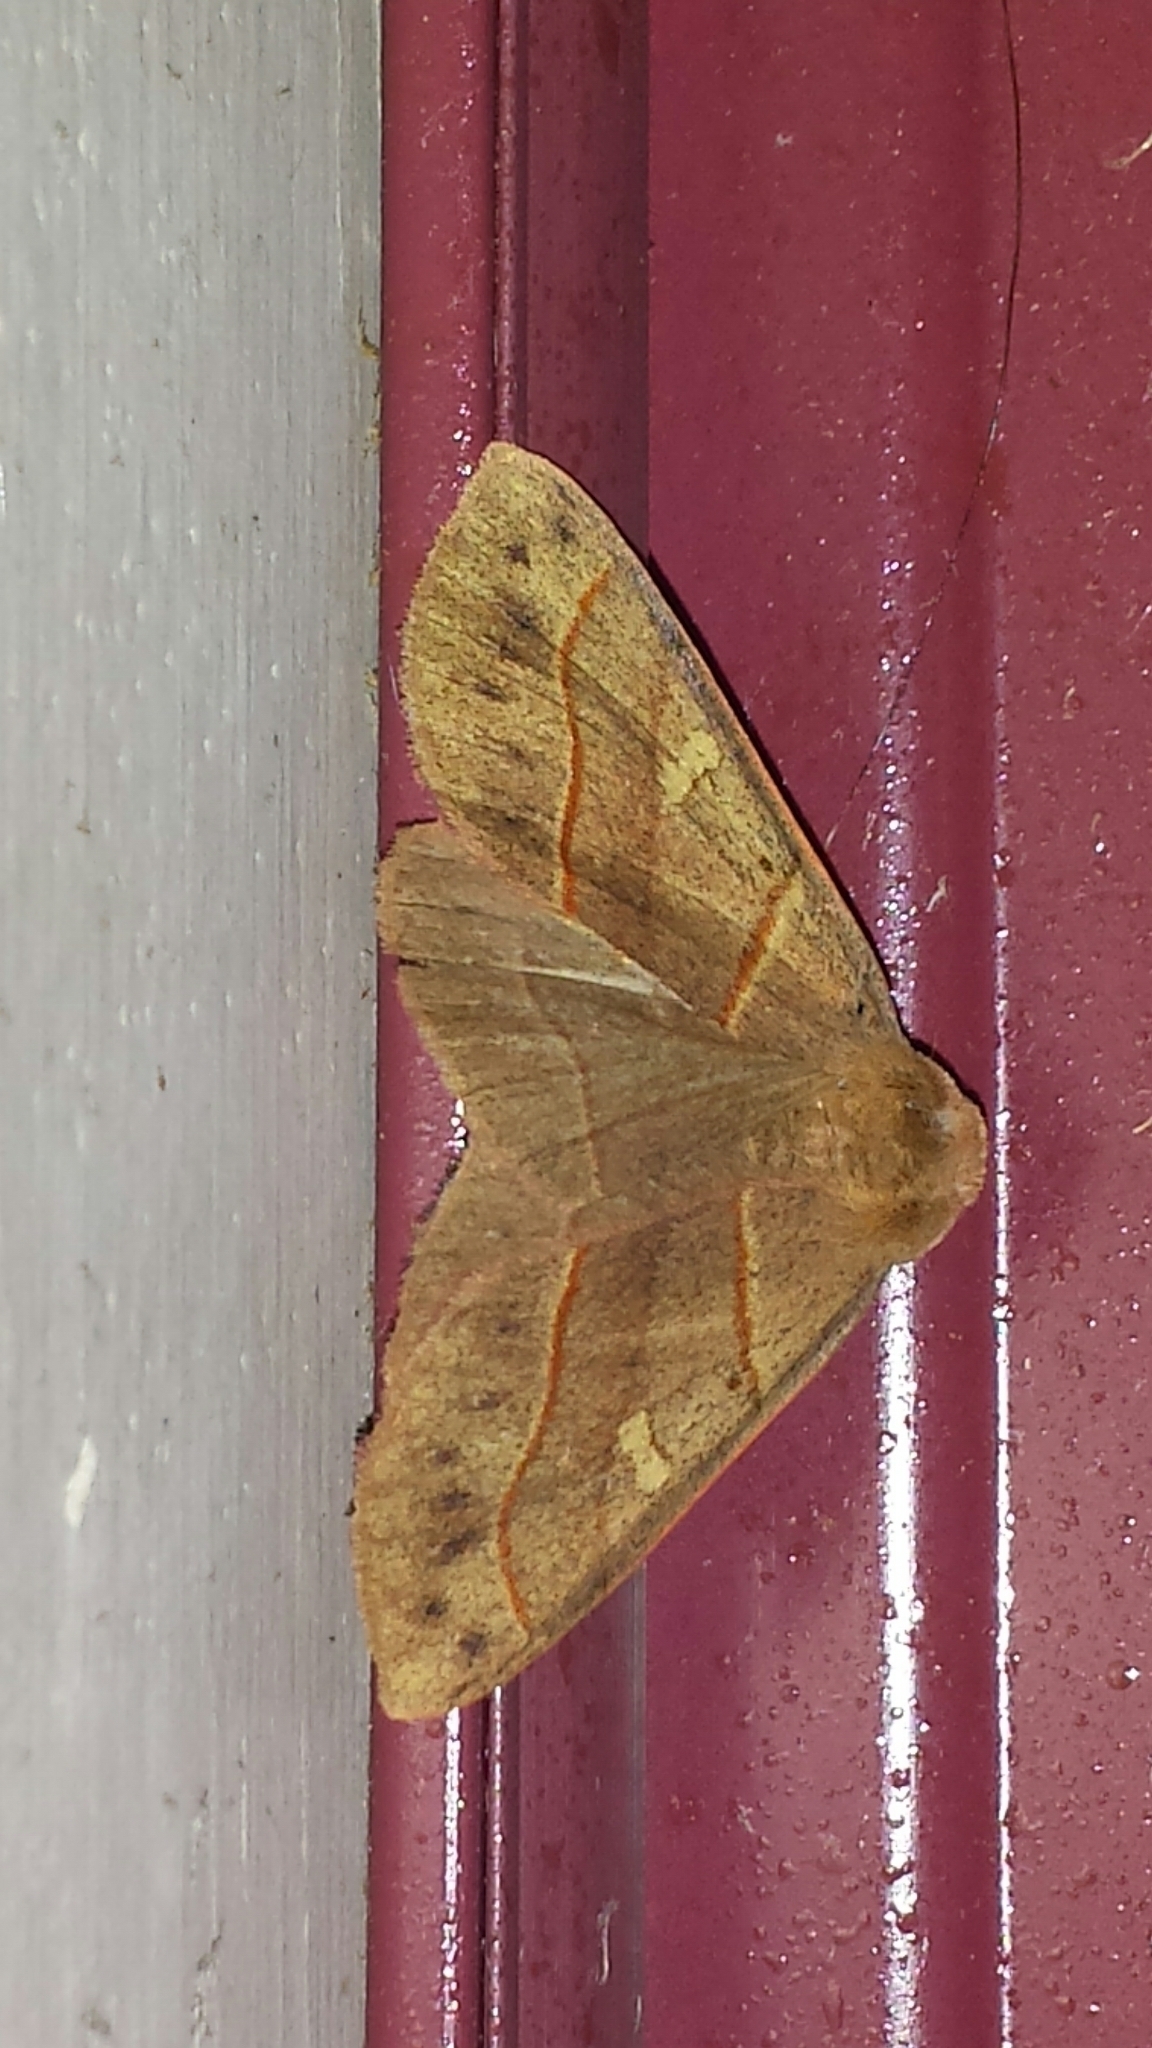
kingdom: Animalia
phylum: Arthropoda
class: Insecta
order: Lepidoptera
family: Erebidae
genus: Panopoda
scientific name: Panopoda rufimargo
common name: Red-lined panopoda moth
